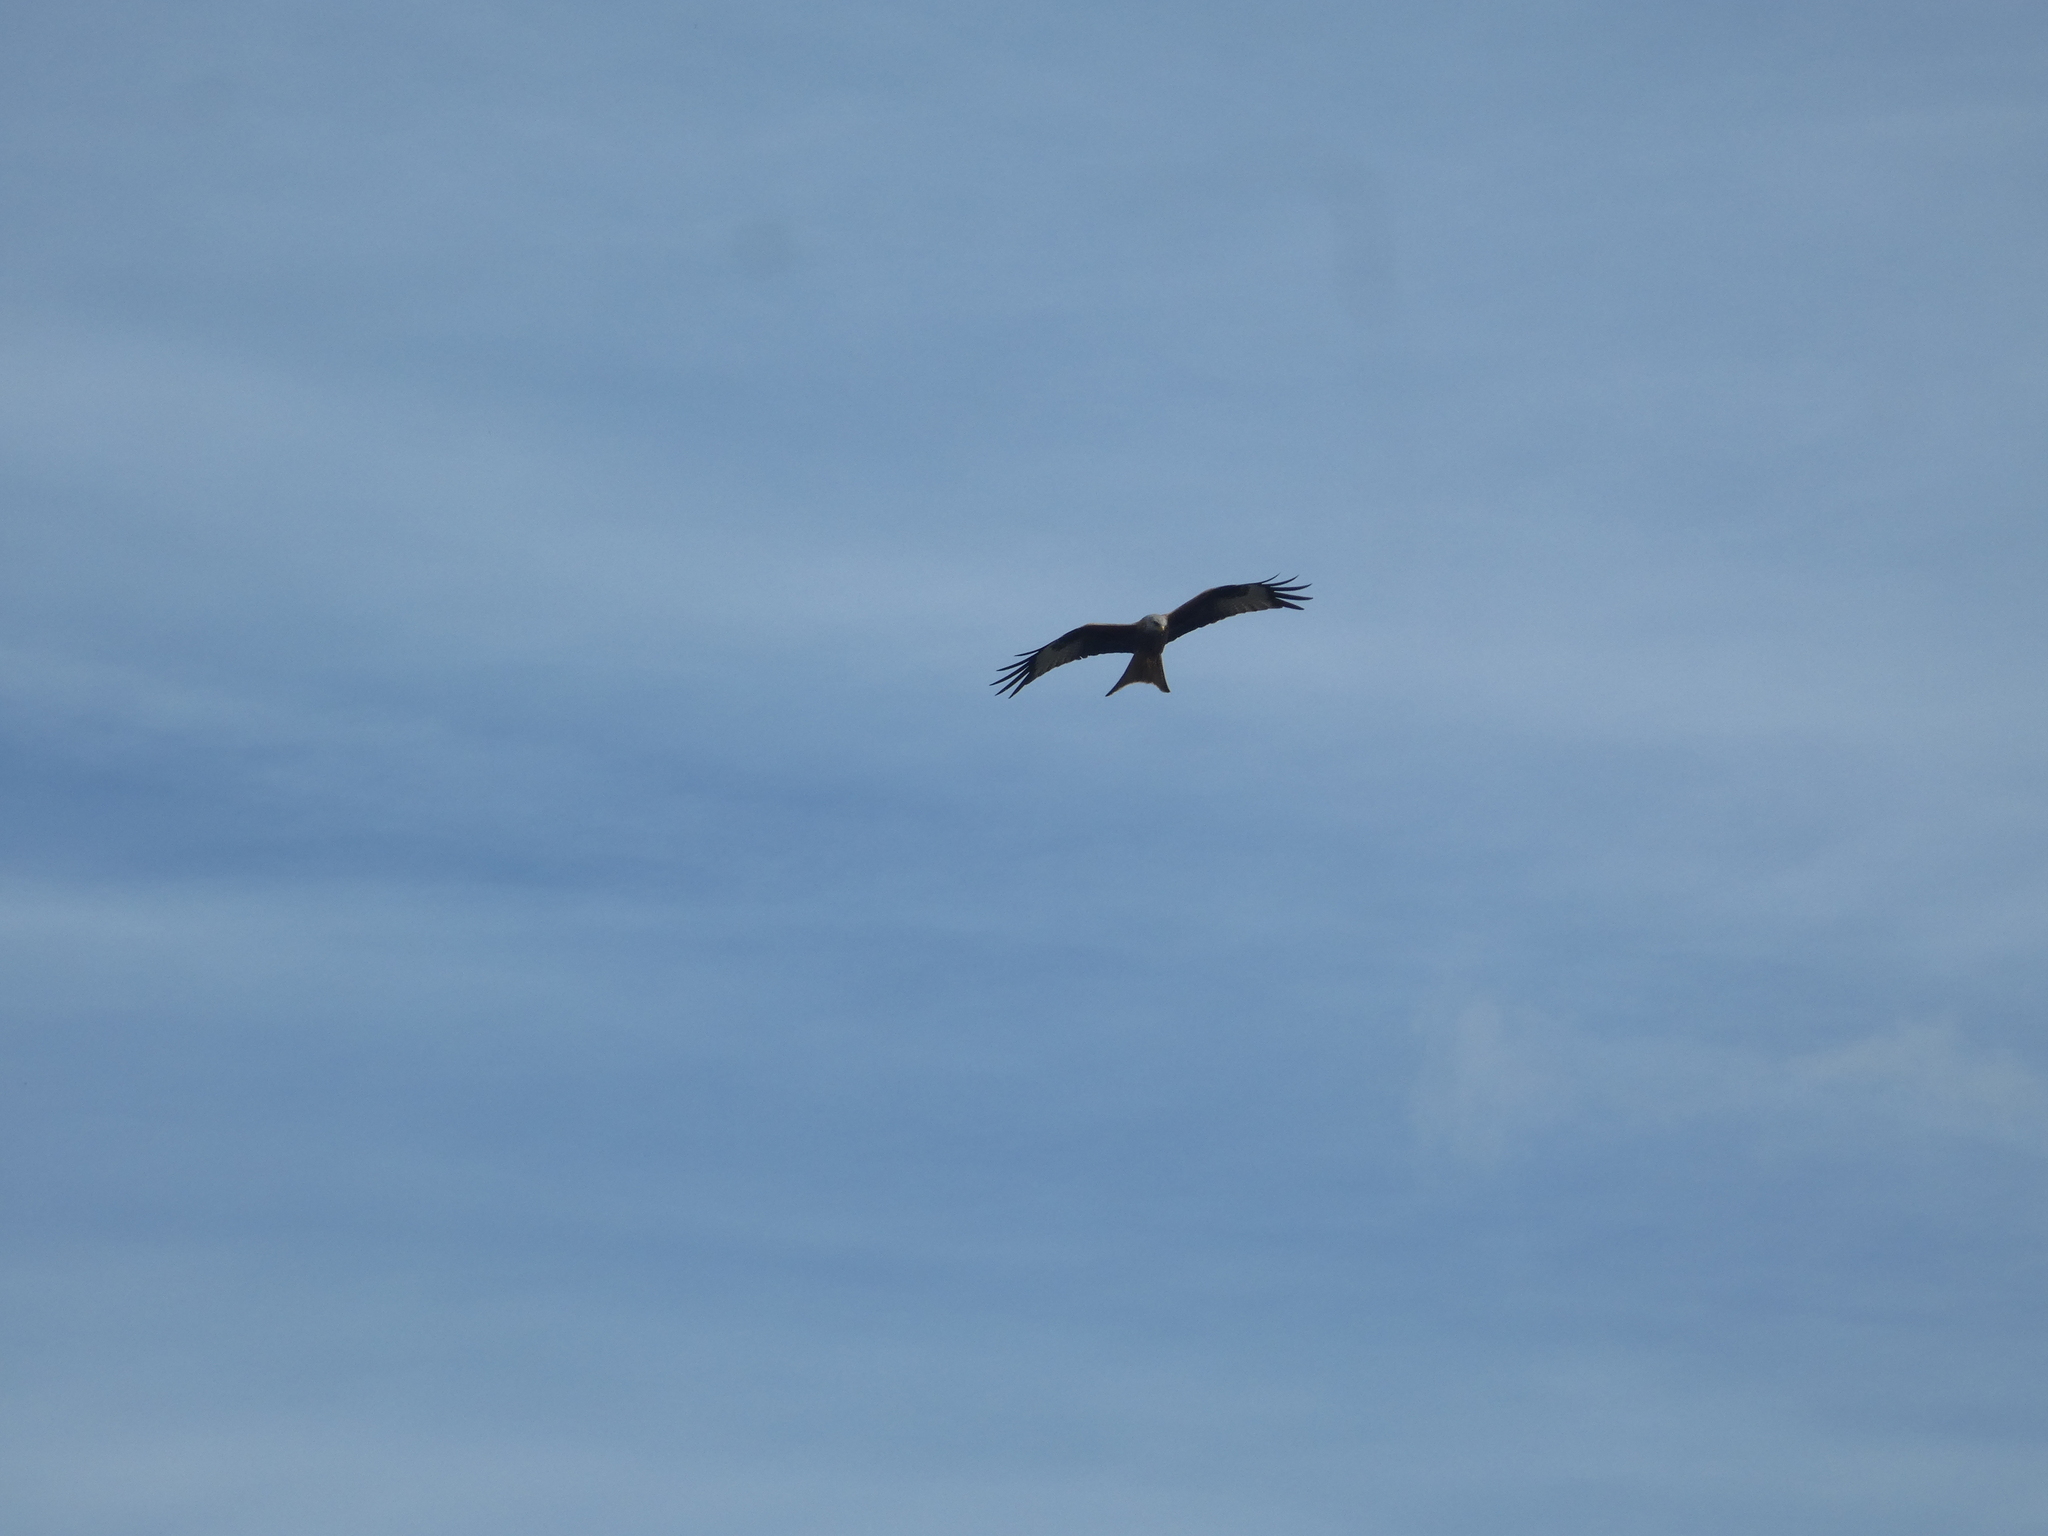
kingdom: Animalia
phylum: Chordata
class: Aves
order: Accipitriformes
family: Accipitridae
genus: Milvus
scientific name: Milvus milvus
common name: Red kite
